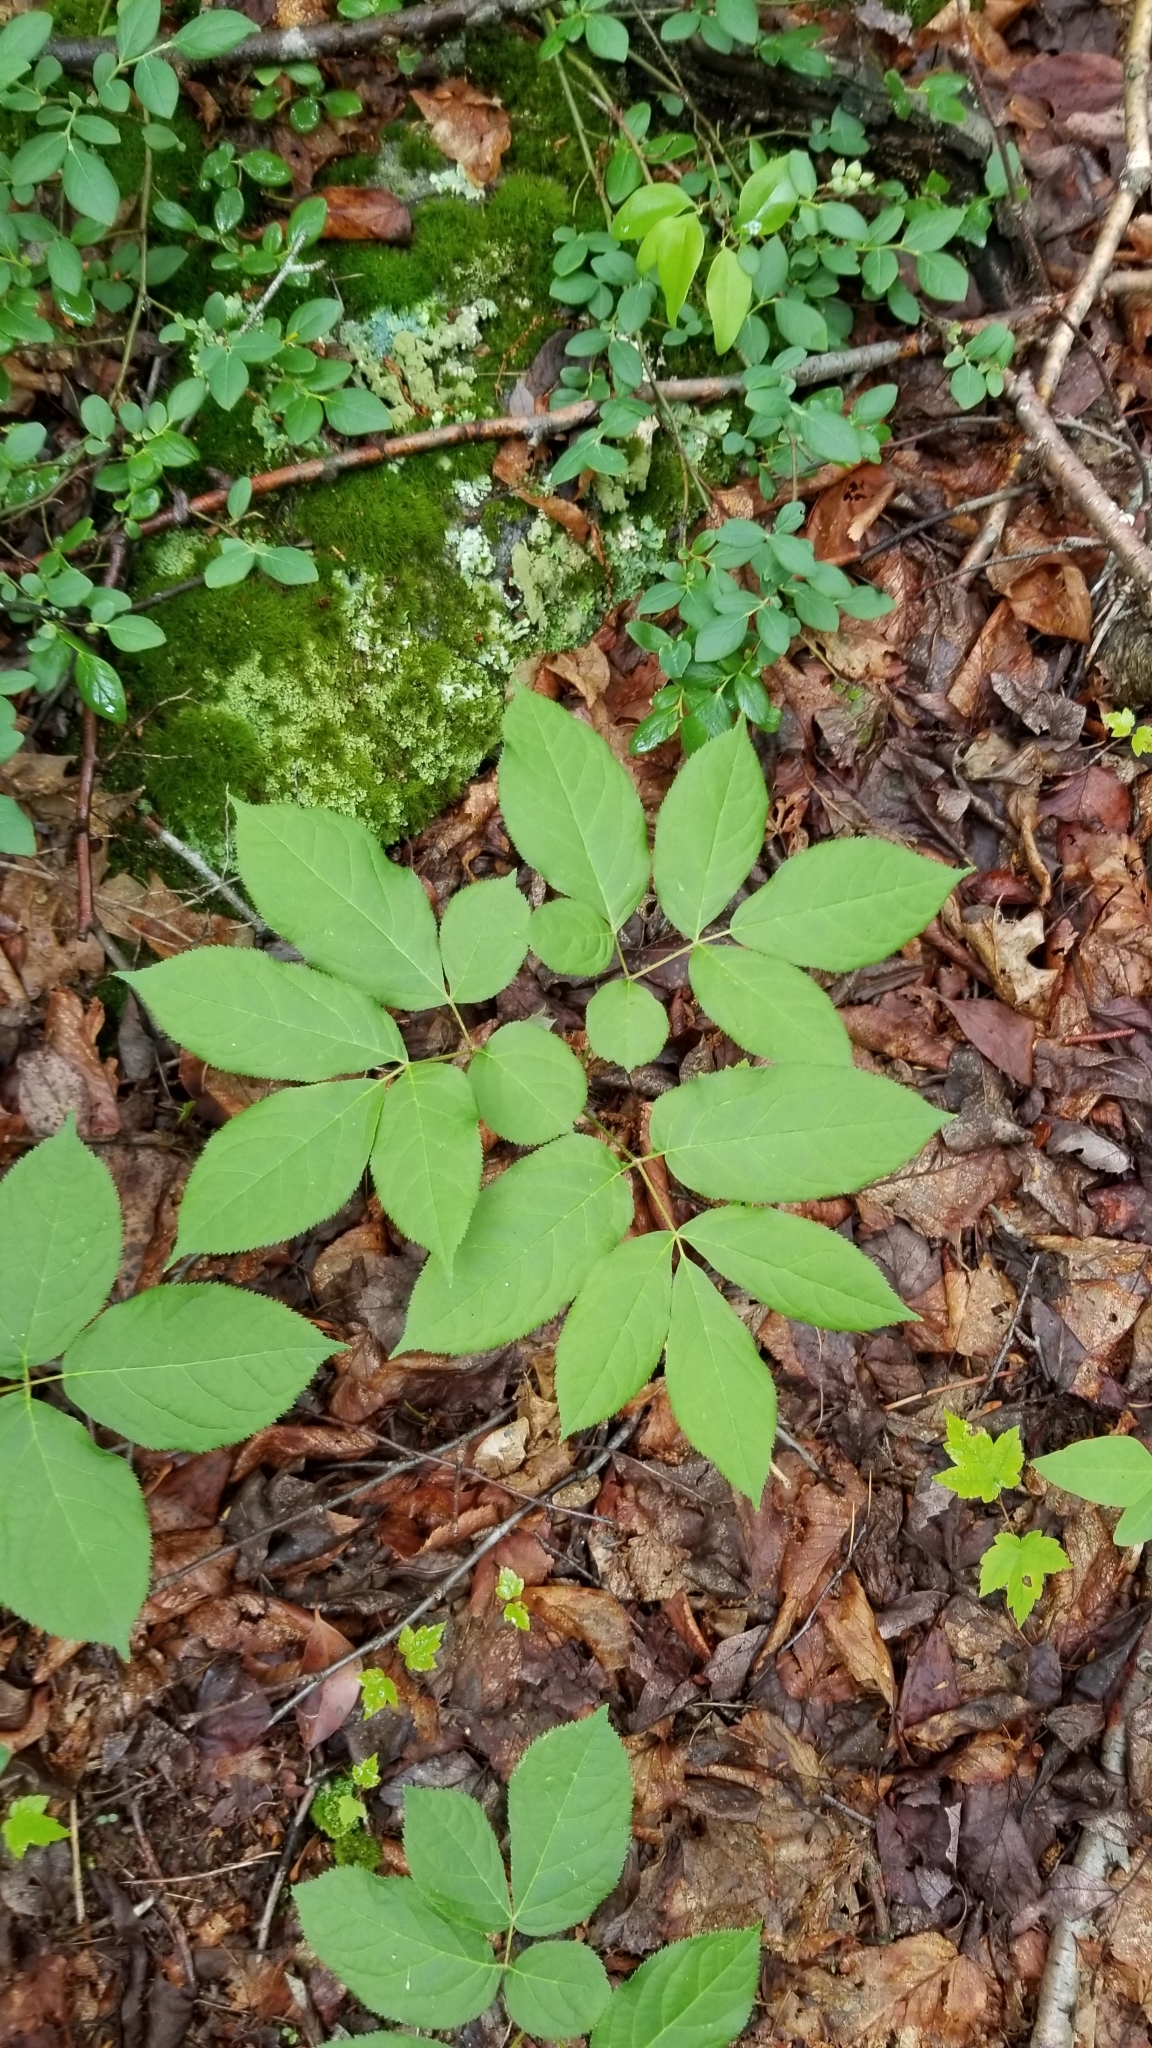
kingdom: Plantae
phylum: Tracheophyta
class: Magnoliopsida
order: Apiales
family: Araliaceae
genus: Aralia
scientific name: Aralia nudicaulis
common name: Wild sarsaparilla
